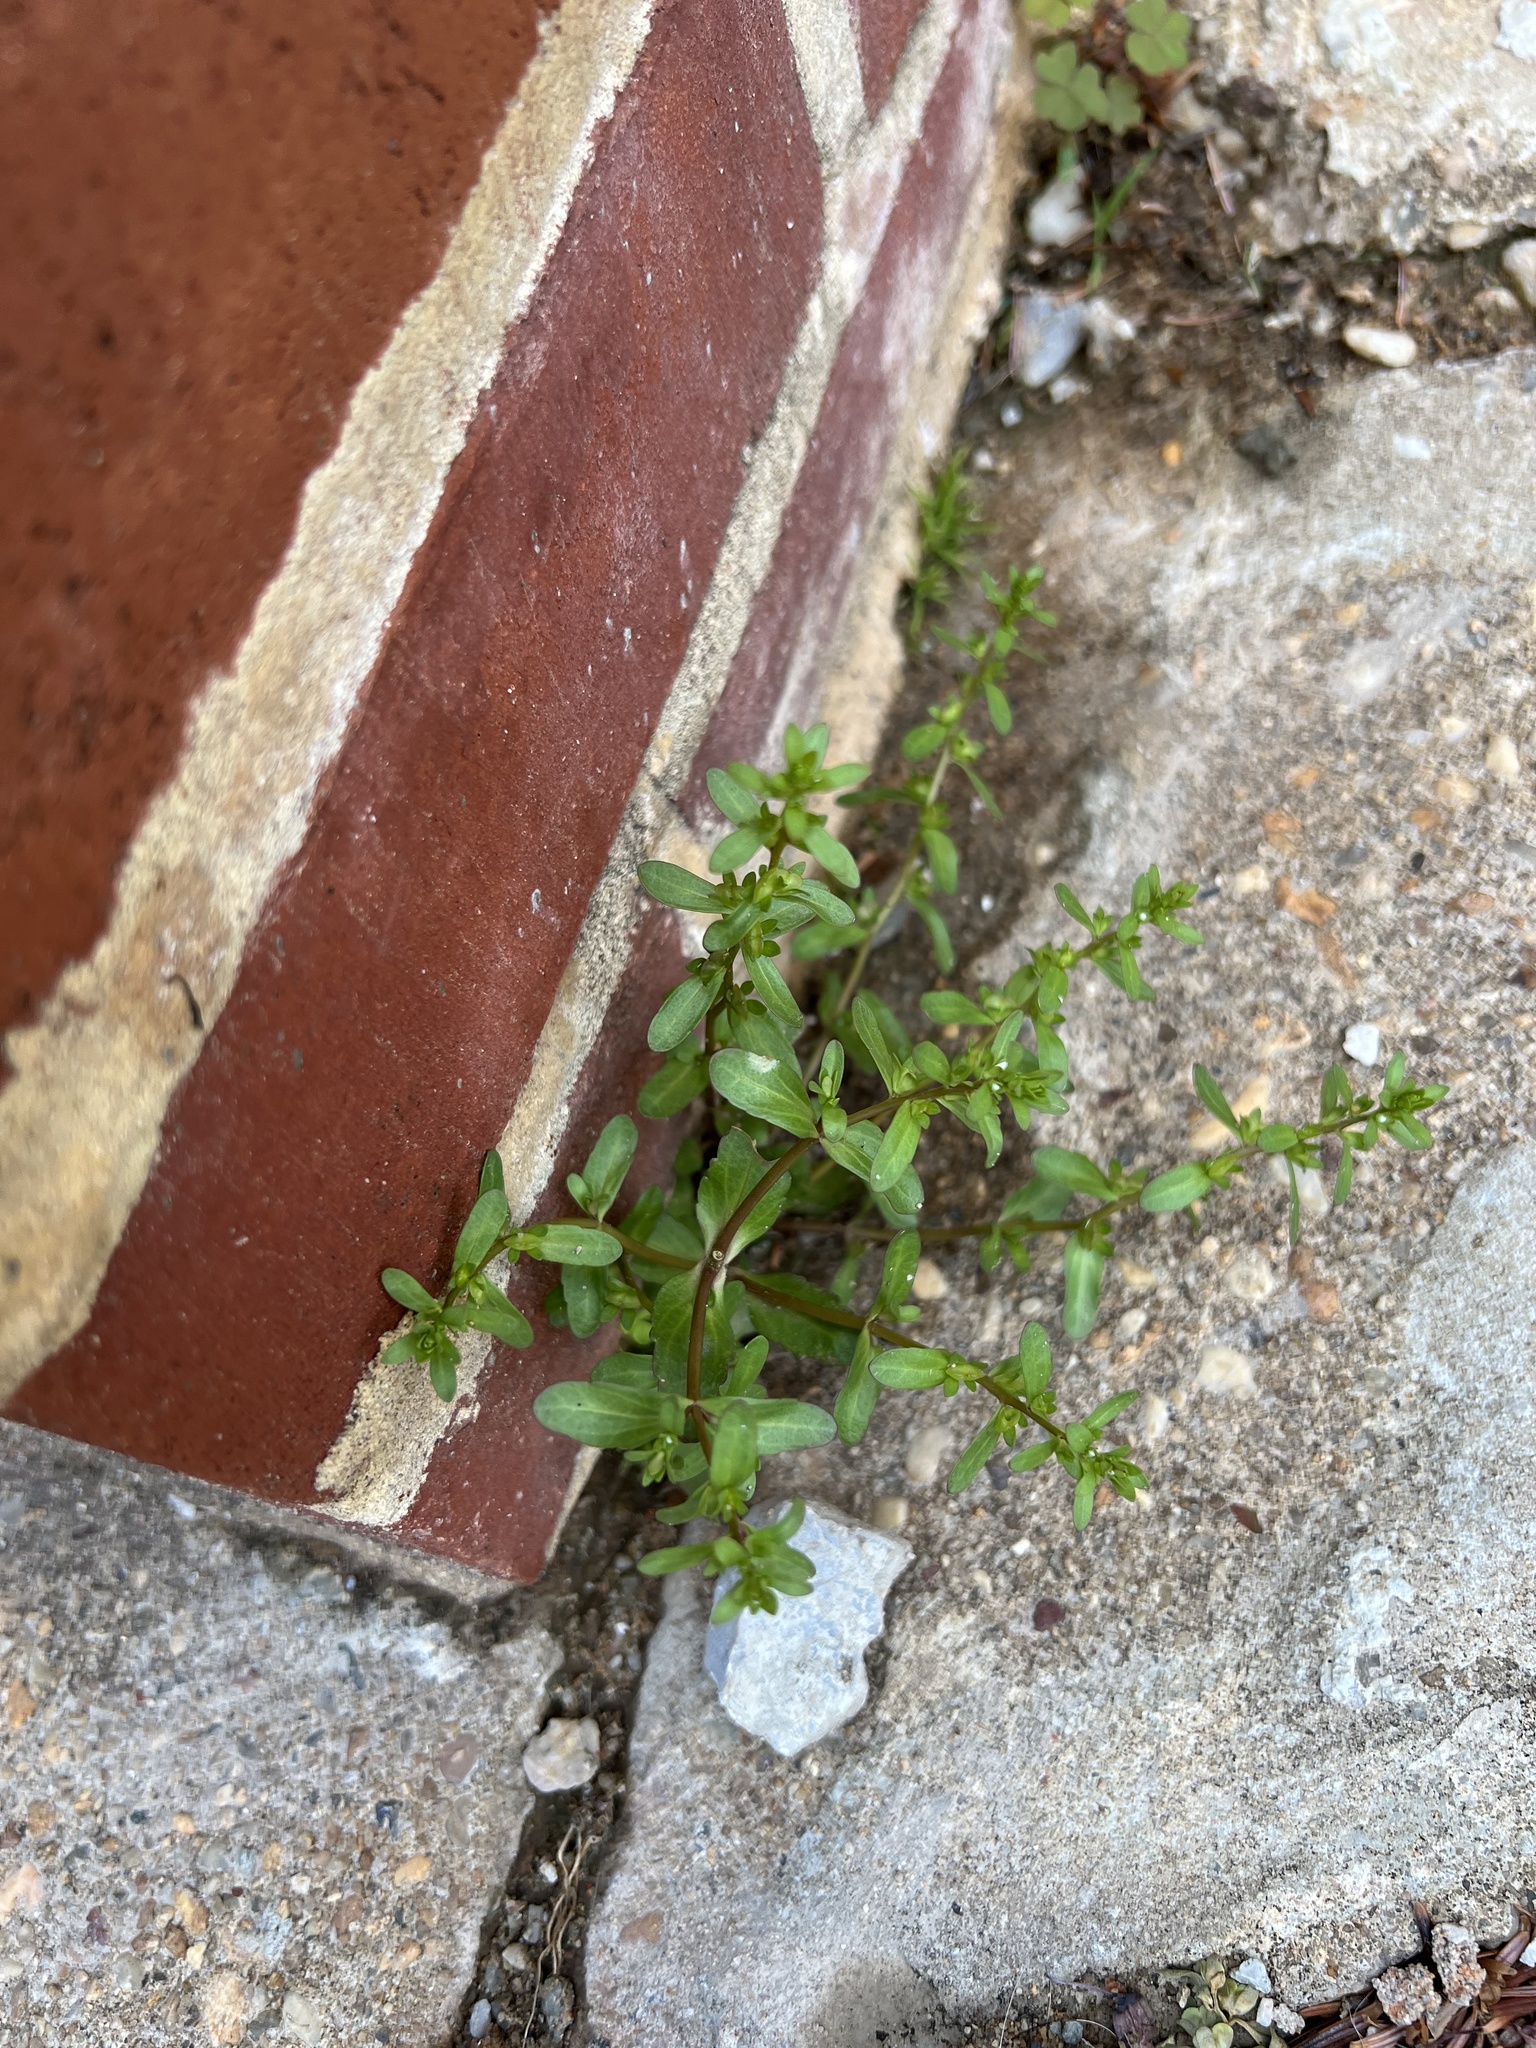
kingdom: Plantae
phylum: Tracheophyta
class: Magnoliopsida
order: Lamiales
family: Plantaginaceae
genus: Veronica
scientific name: Veronica peregrina
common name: Neckweed
